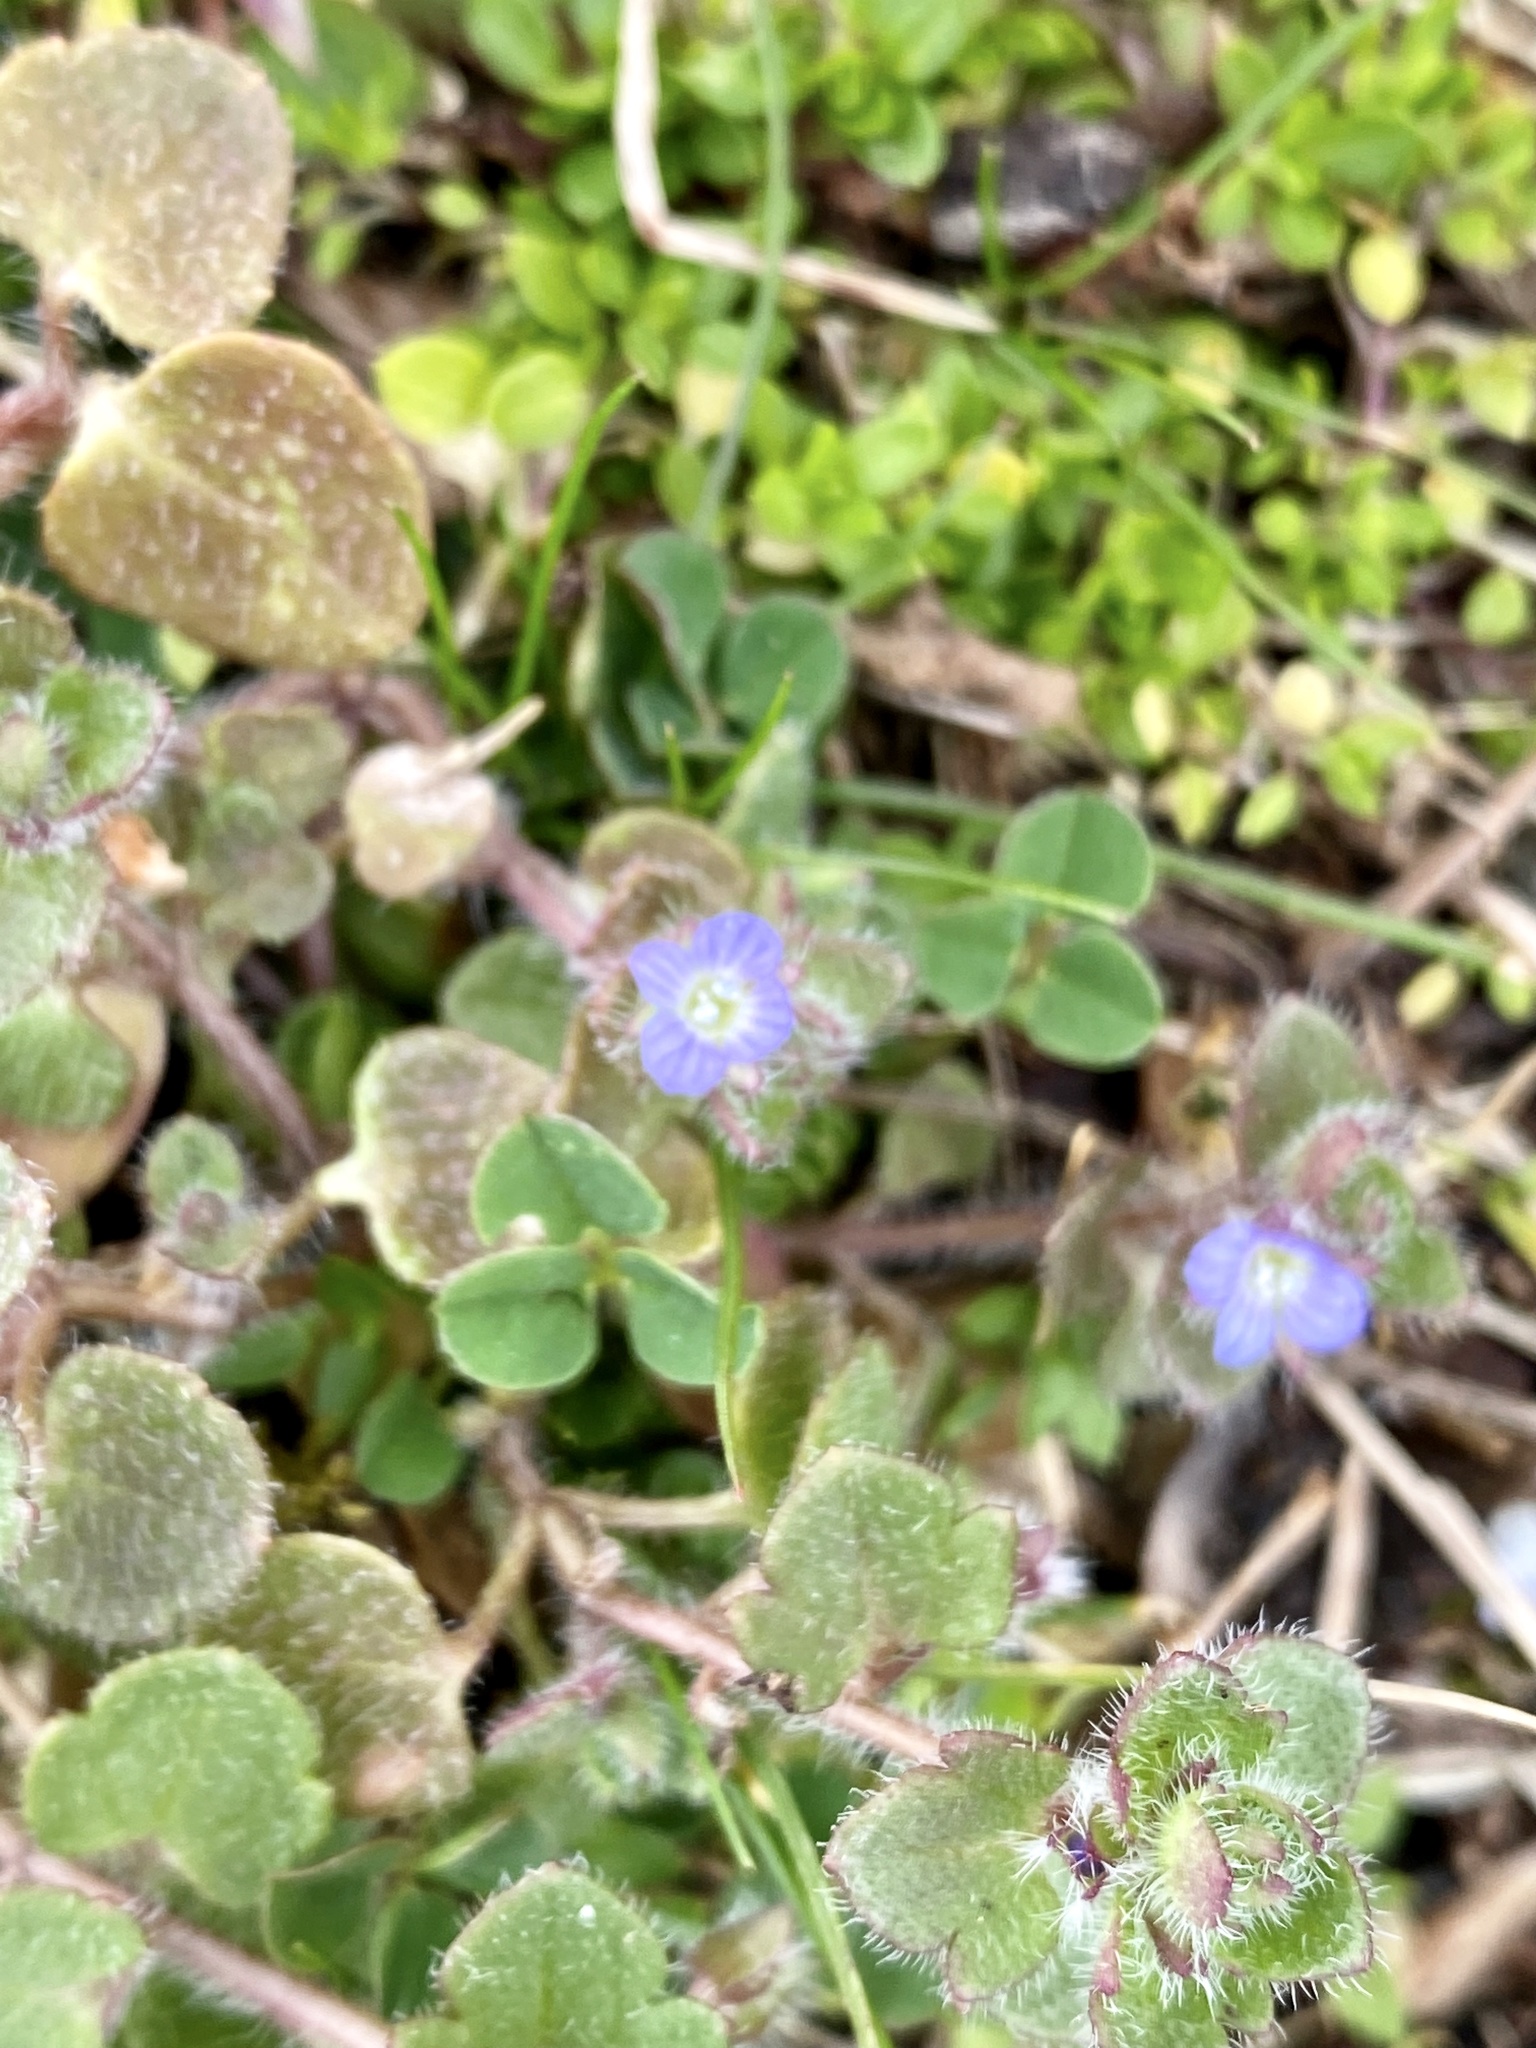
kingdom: Plantae
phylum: Tracheophyta
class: Magnoliopsida
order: Lamiales
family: Plantaginaceae
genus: Veronica
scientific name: Veronica hederifolia
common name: Ivy-leaved speedwell
